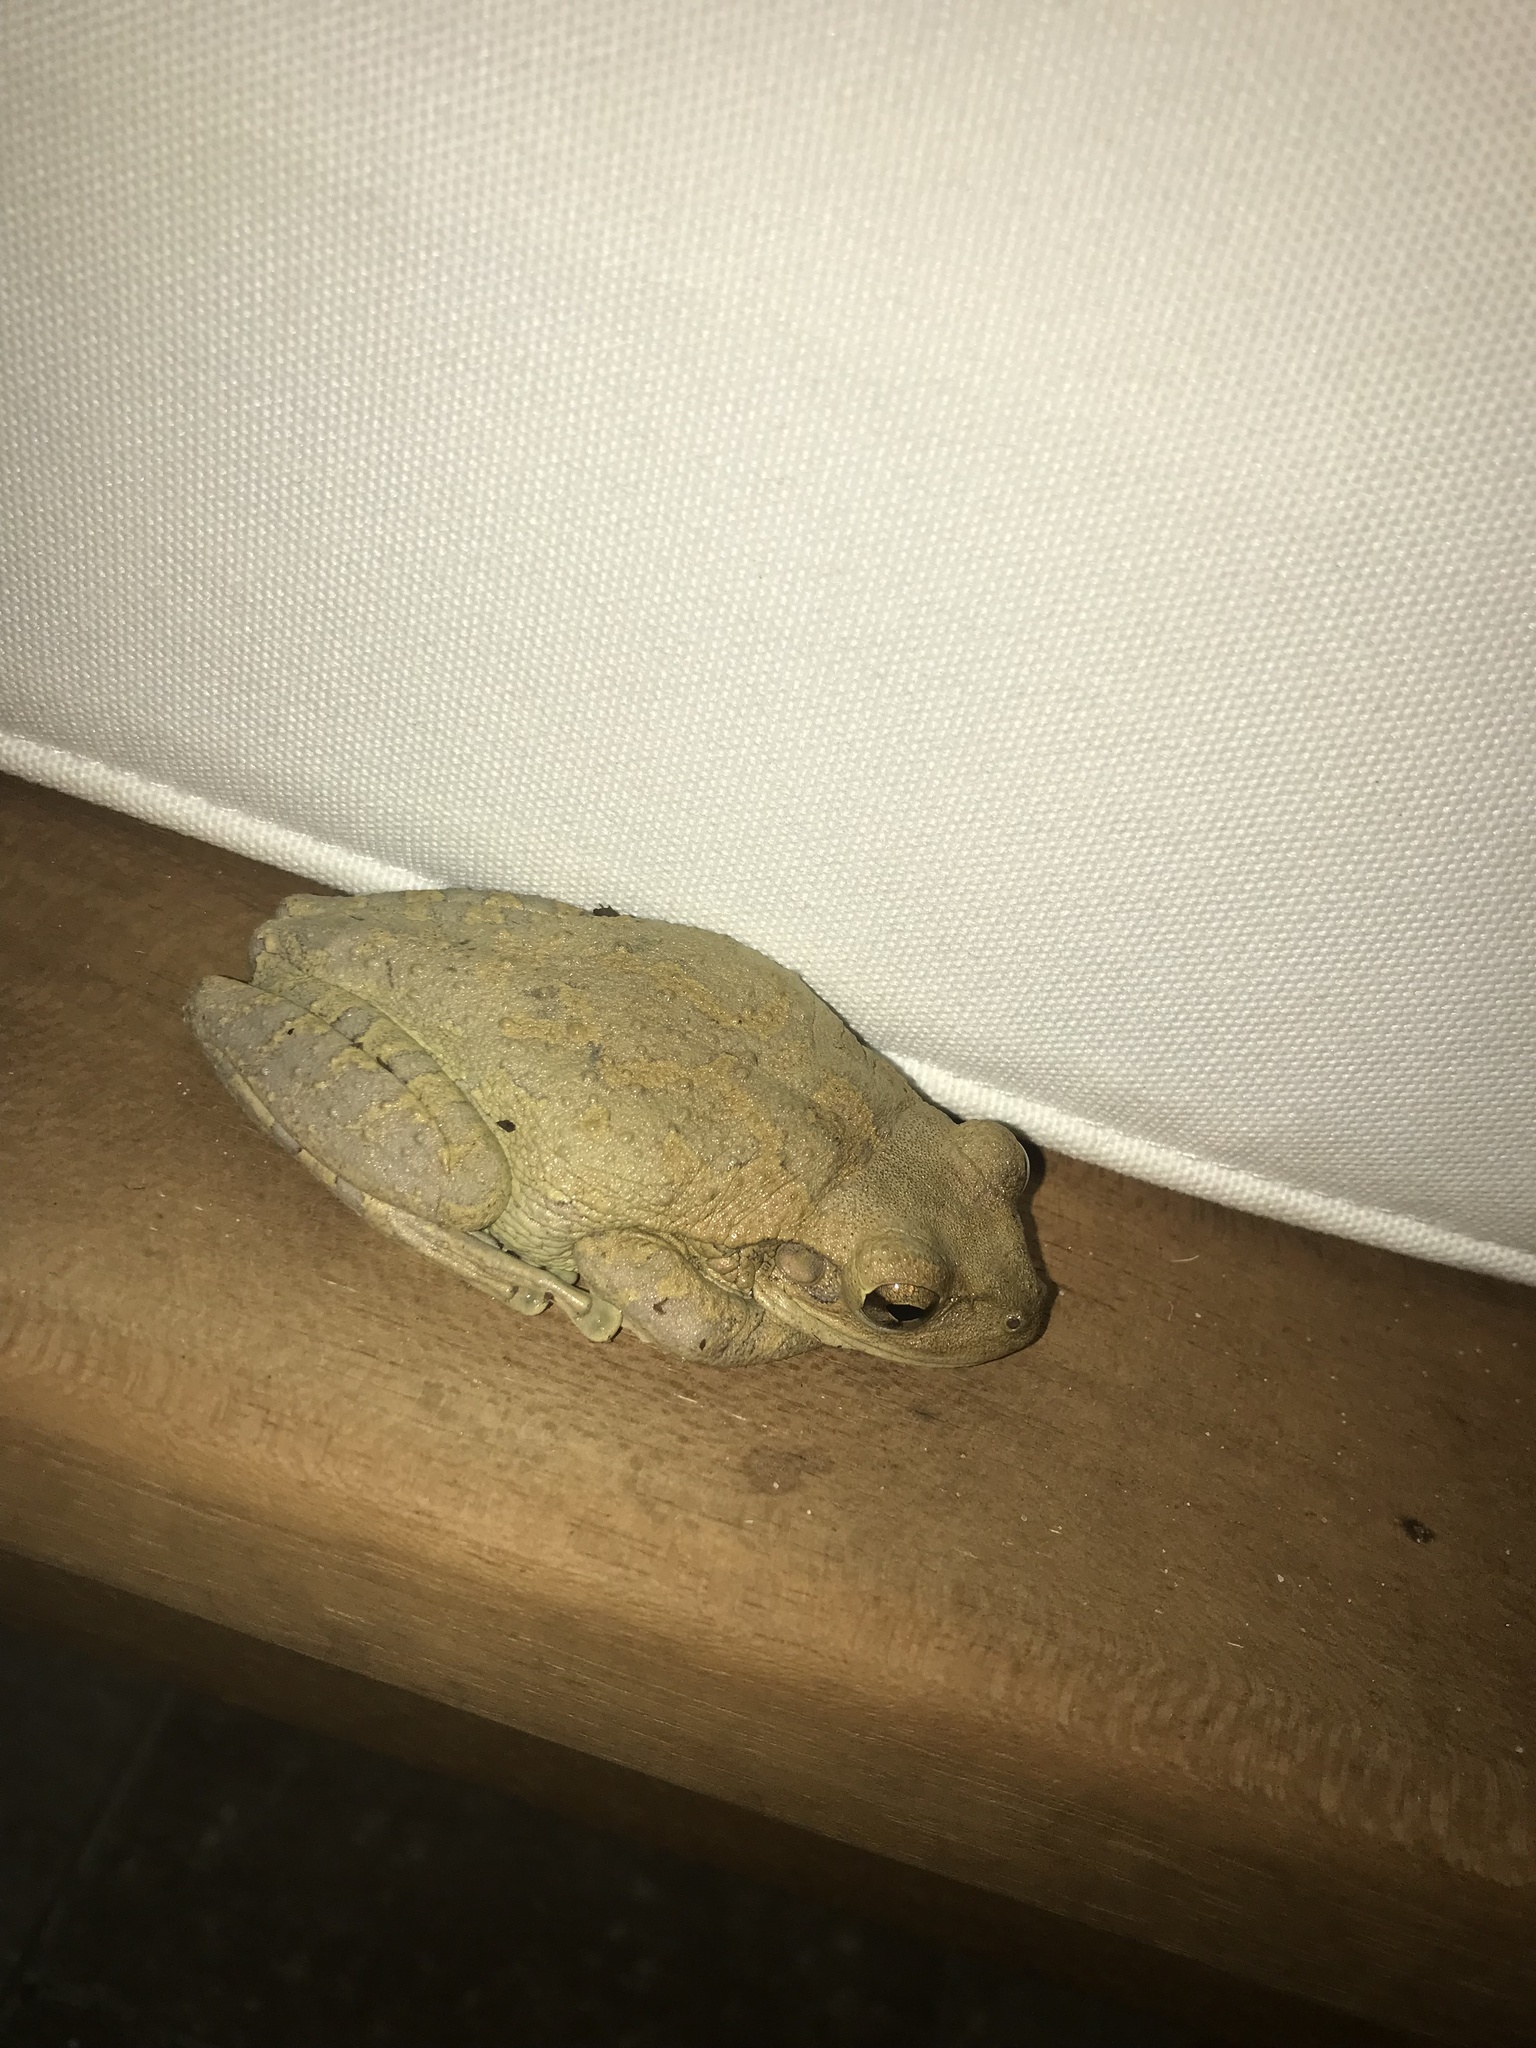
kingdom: Animalia
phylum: Chordata
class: Amphibia
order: Anura
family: Hylidae
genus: Osteopilus
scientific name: Osteopilus septentrionalis
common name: Cuban treefrog
